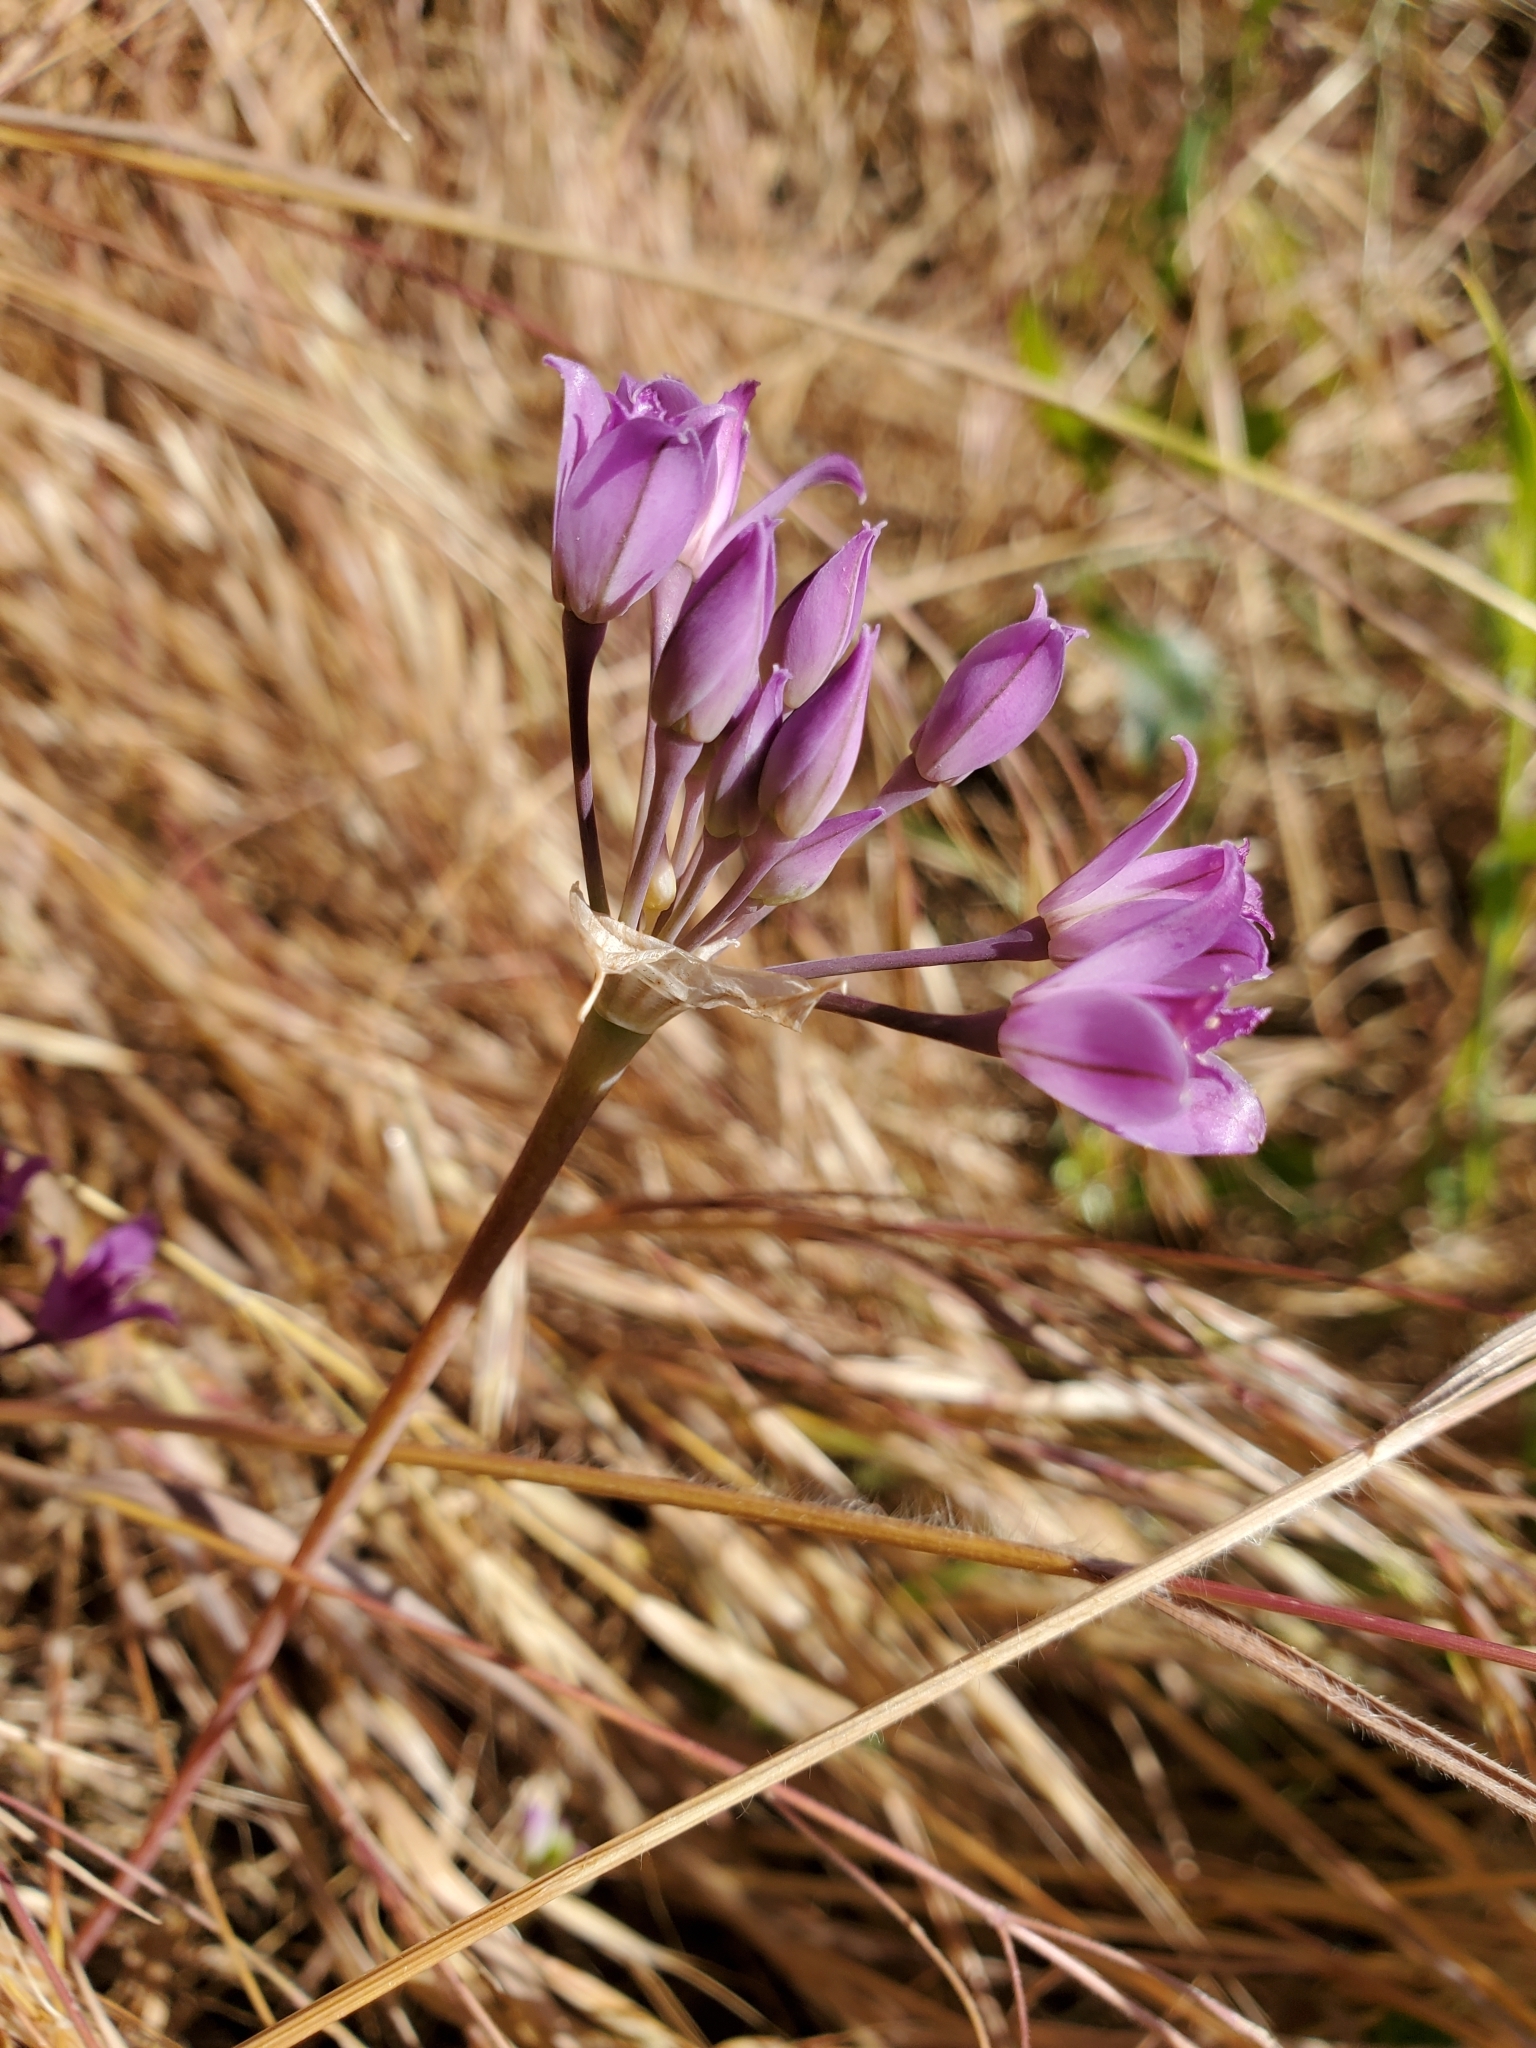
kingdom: Plantae
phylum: Tracheophyta
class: Liliopsida
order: Asparagales
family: Amaryllidaceae
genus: Allium
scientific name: Allium acuminatum
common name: Hooker's onion
